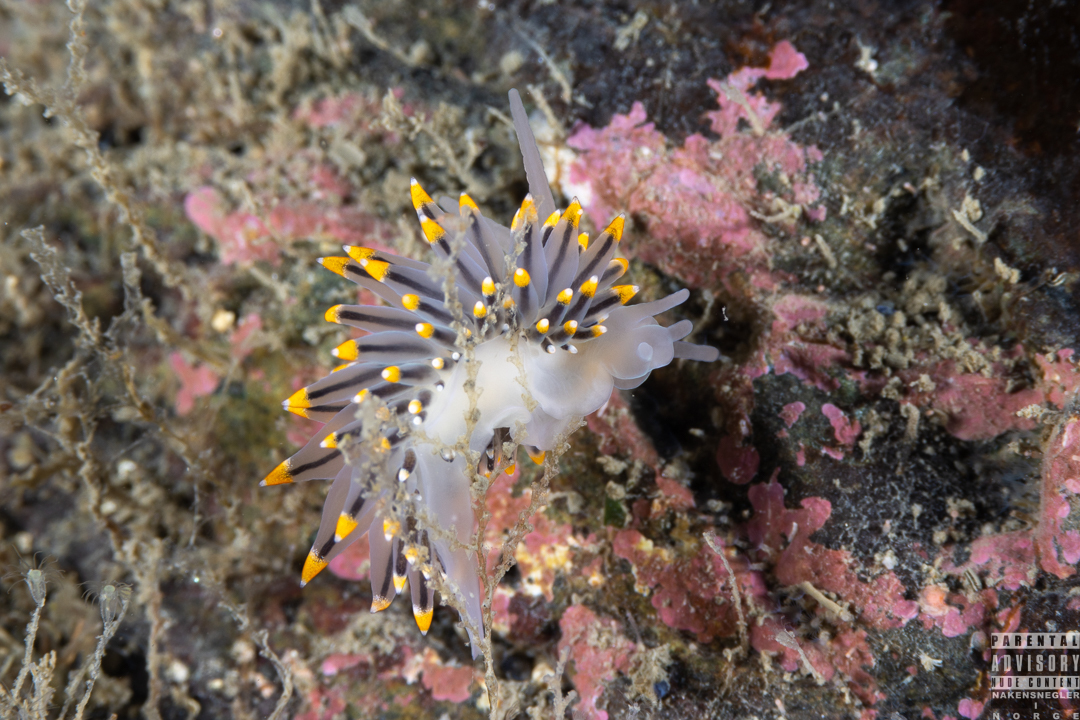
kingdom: Animalia
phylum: Mollusca
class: Gastropoda
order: Nudibranchia
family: Eubranchidae
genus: Eubranchus
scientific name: Eubranchus tricolor
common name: Painted balloon aeolis
